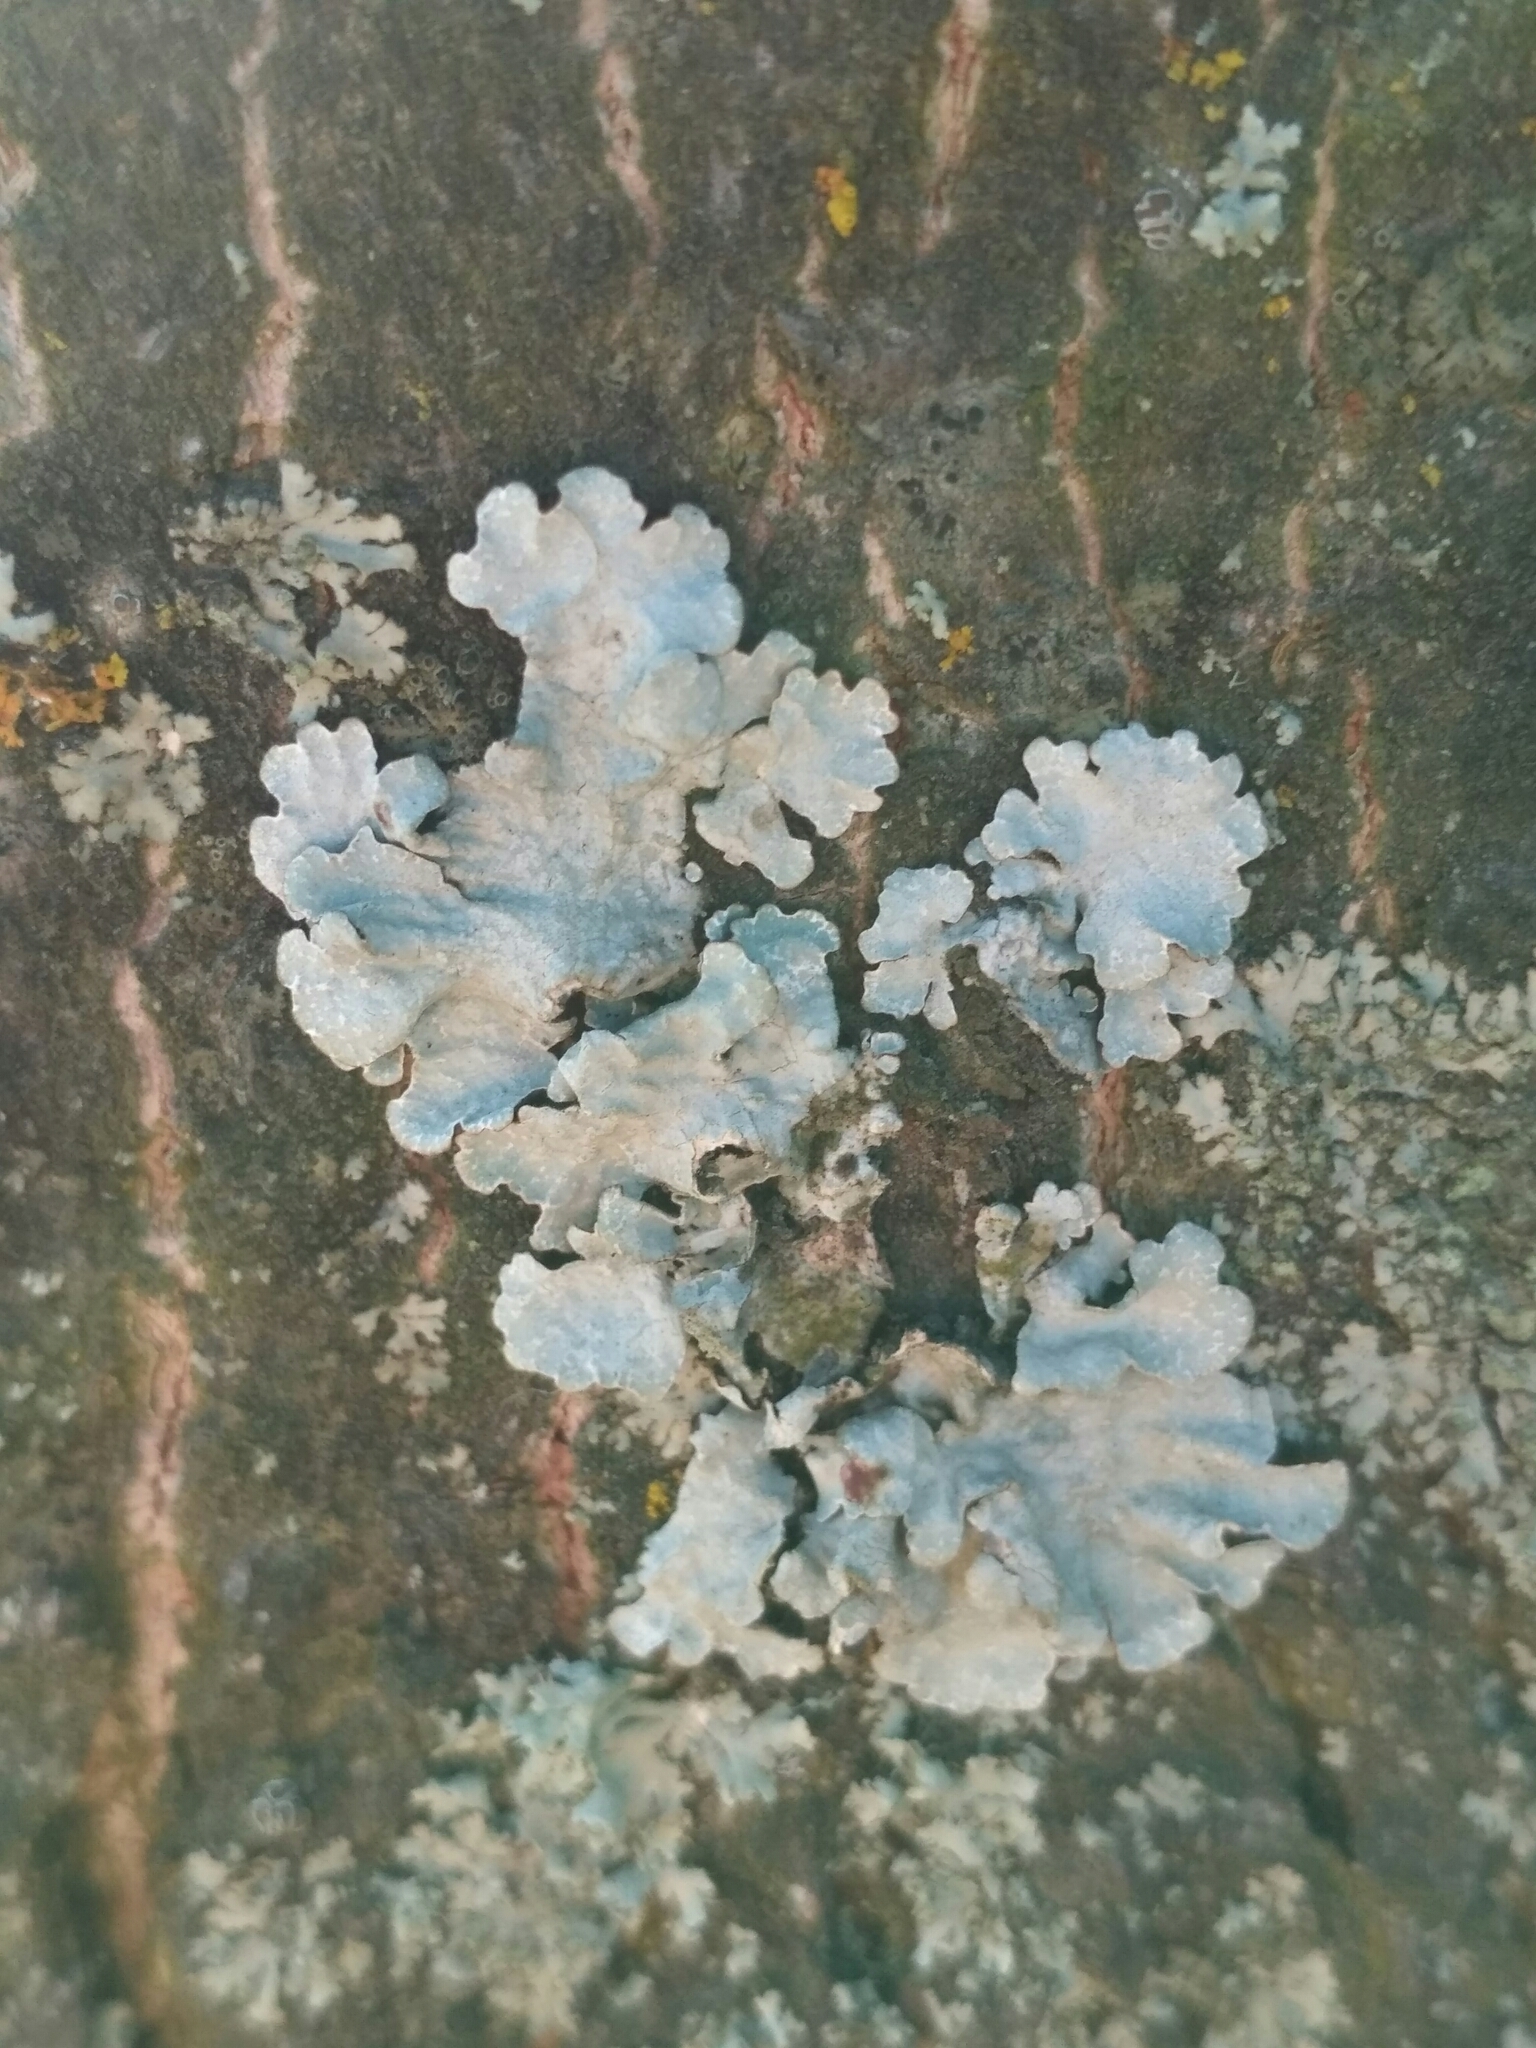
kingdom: Fungi
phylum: Ascomycota
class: Lecanoromycetes
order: Lecanorales
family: Parmeliaceae
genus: Parmelia
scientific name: Parmelia sulcata
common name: Netted shield lichen
